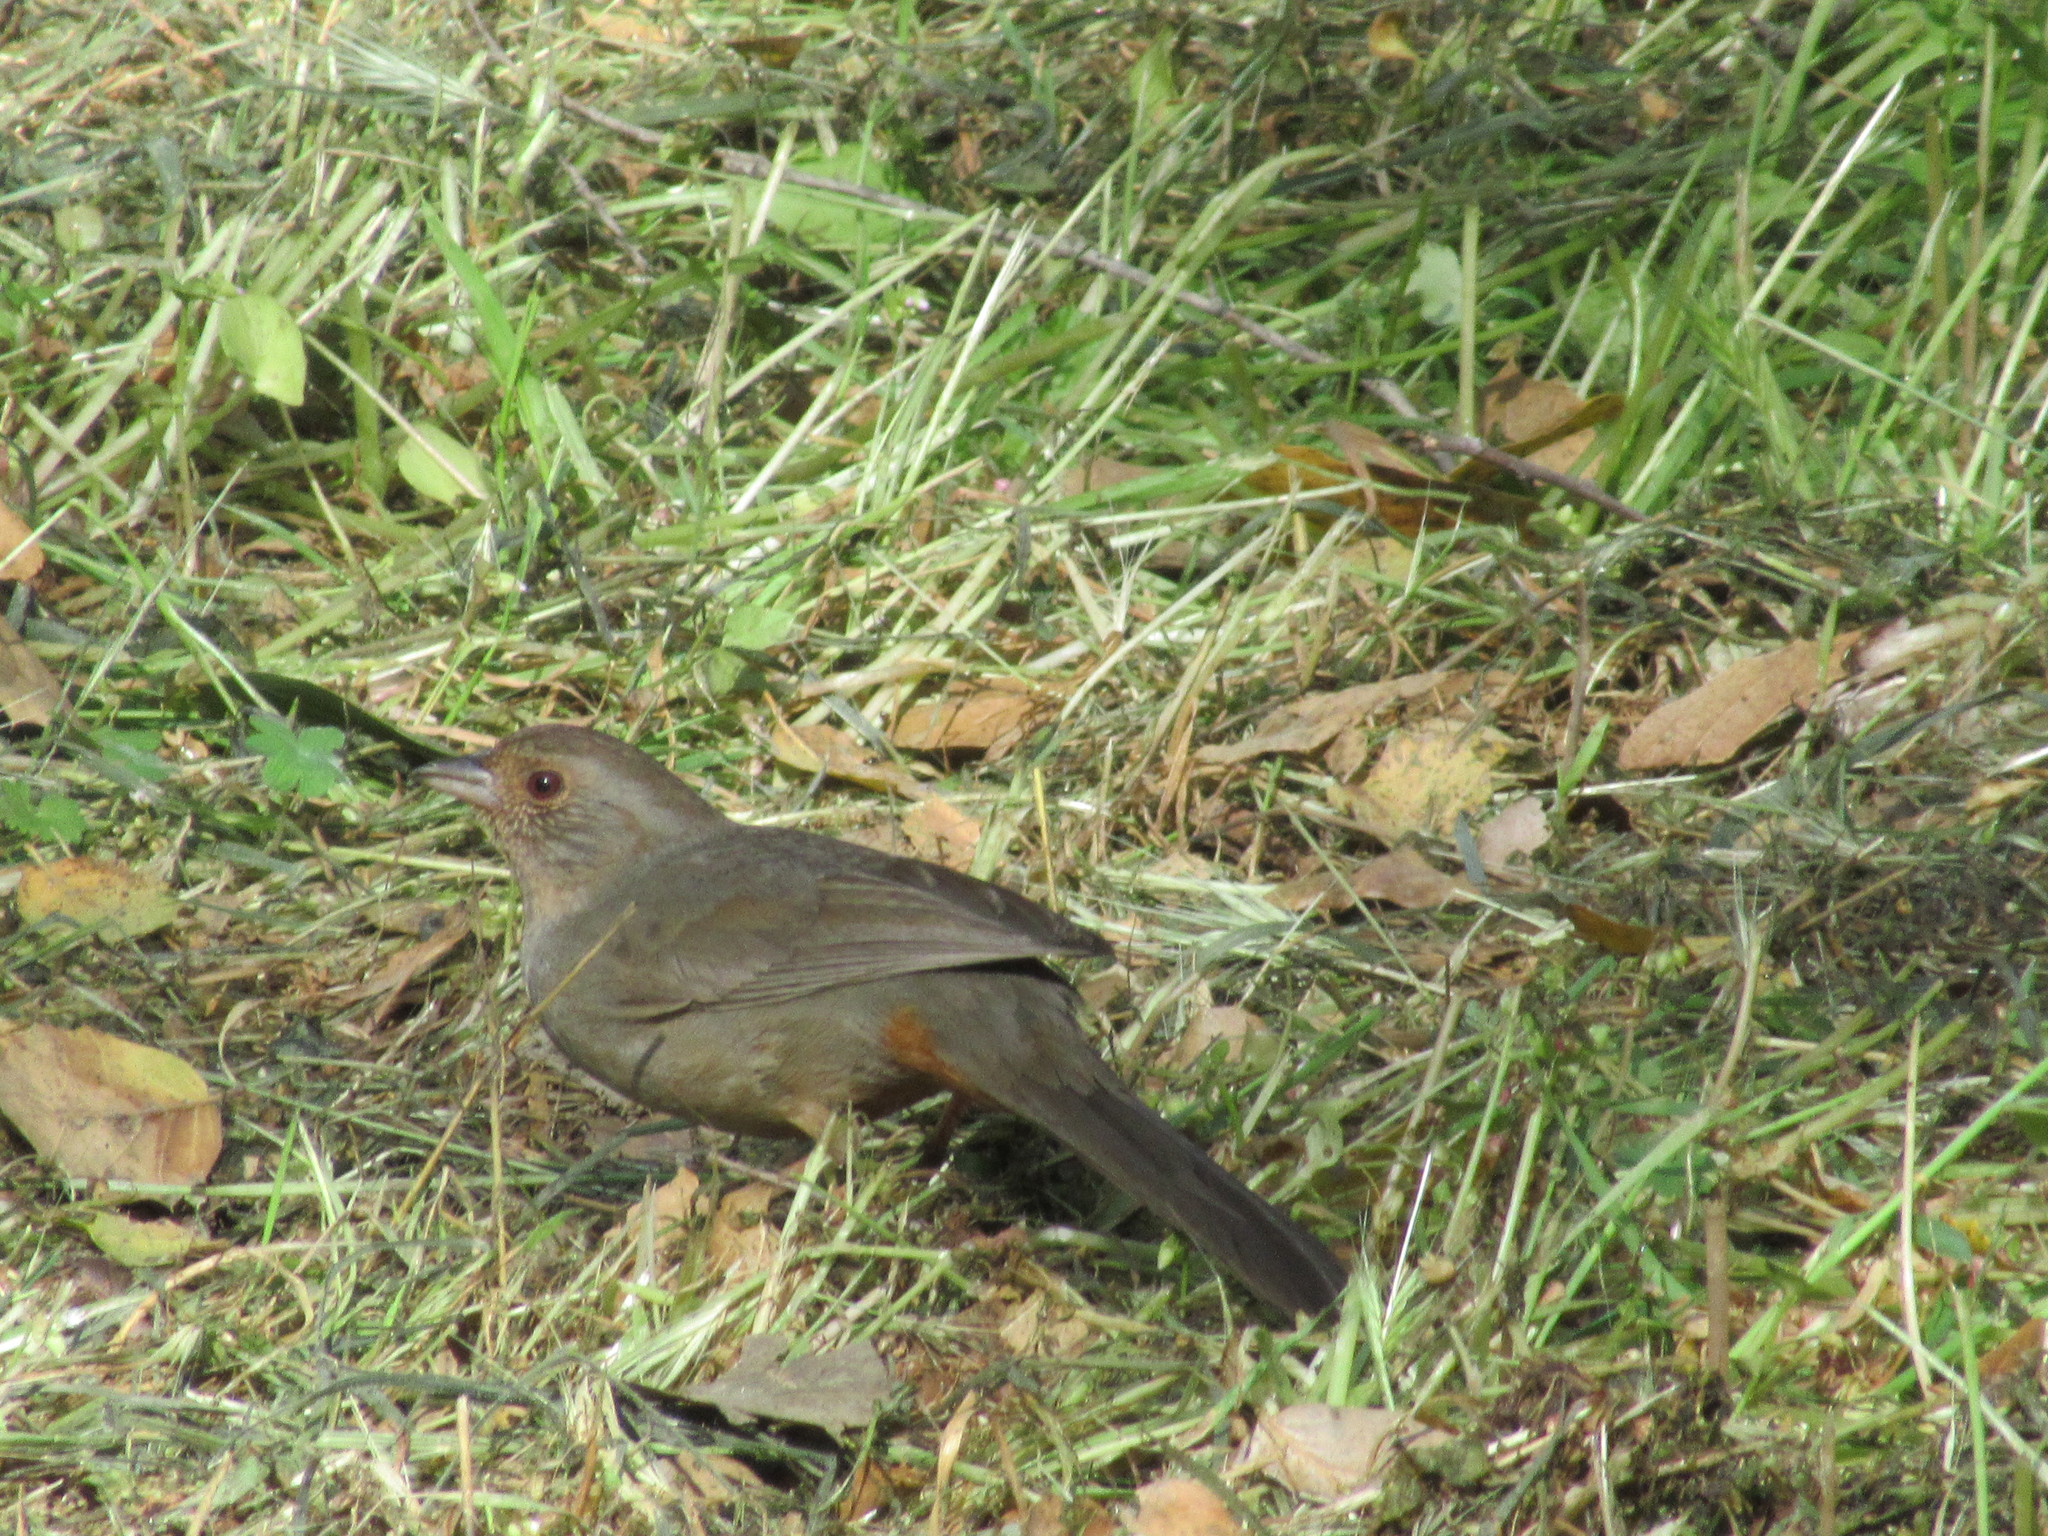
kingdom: Animalia
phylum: Chordata
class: Aves
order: Passeriformes
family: Passerellidae
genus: Melozone
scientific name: Melozone crissalis
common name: California towhee
